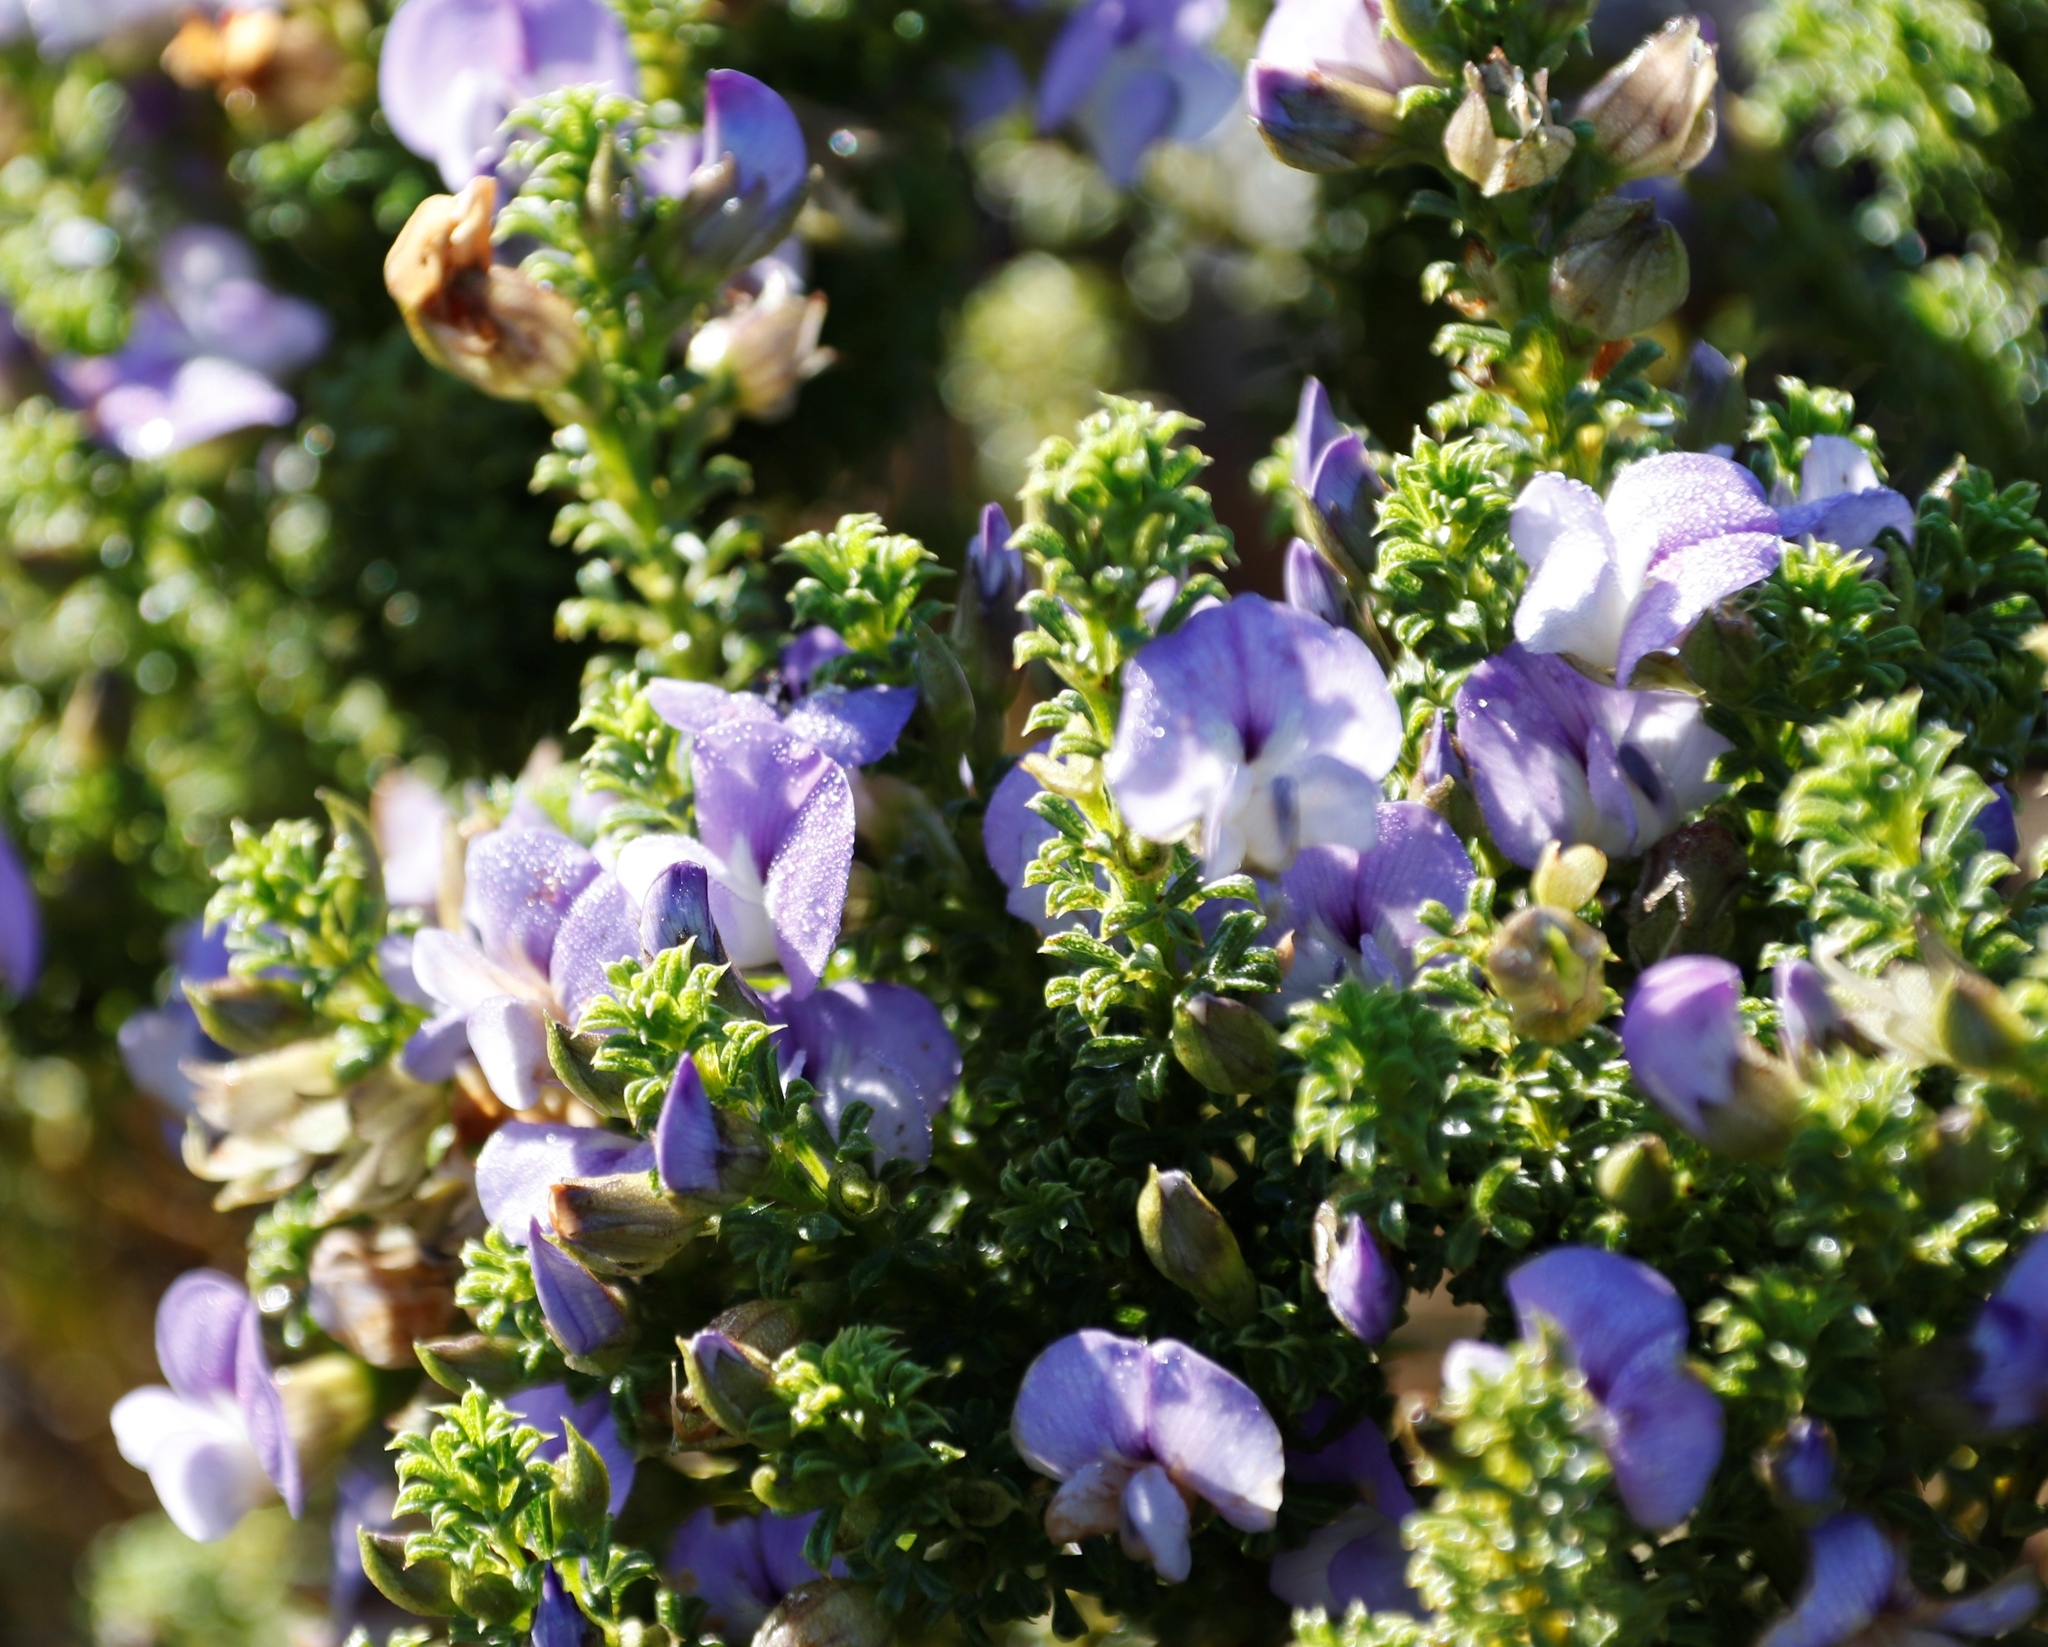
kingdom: Plantae
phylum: Tracheophyta
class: Magnoliopsida
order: Fabales
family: Fabaceae
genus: Psoralea
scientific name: Psoralea aculeata
